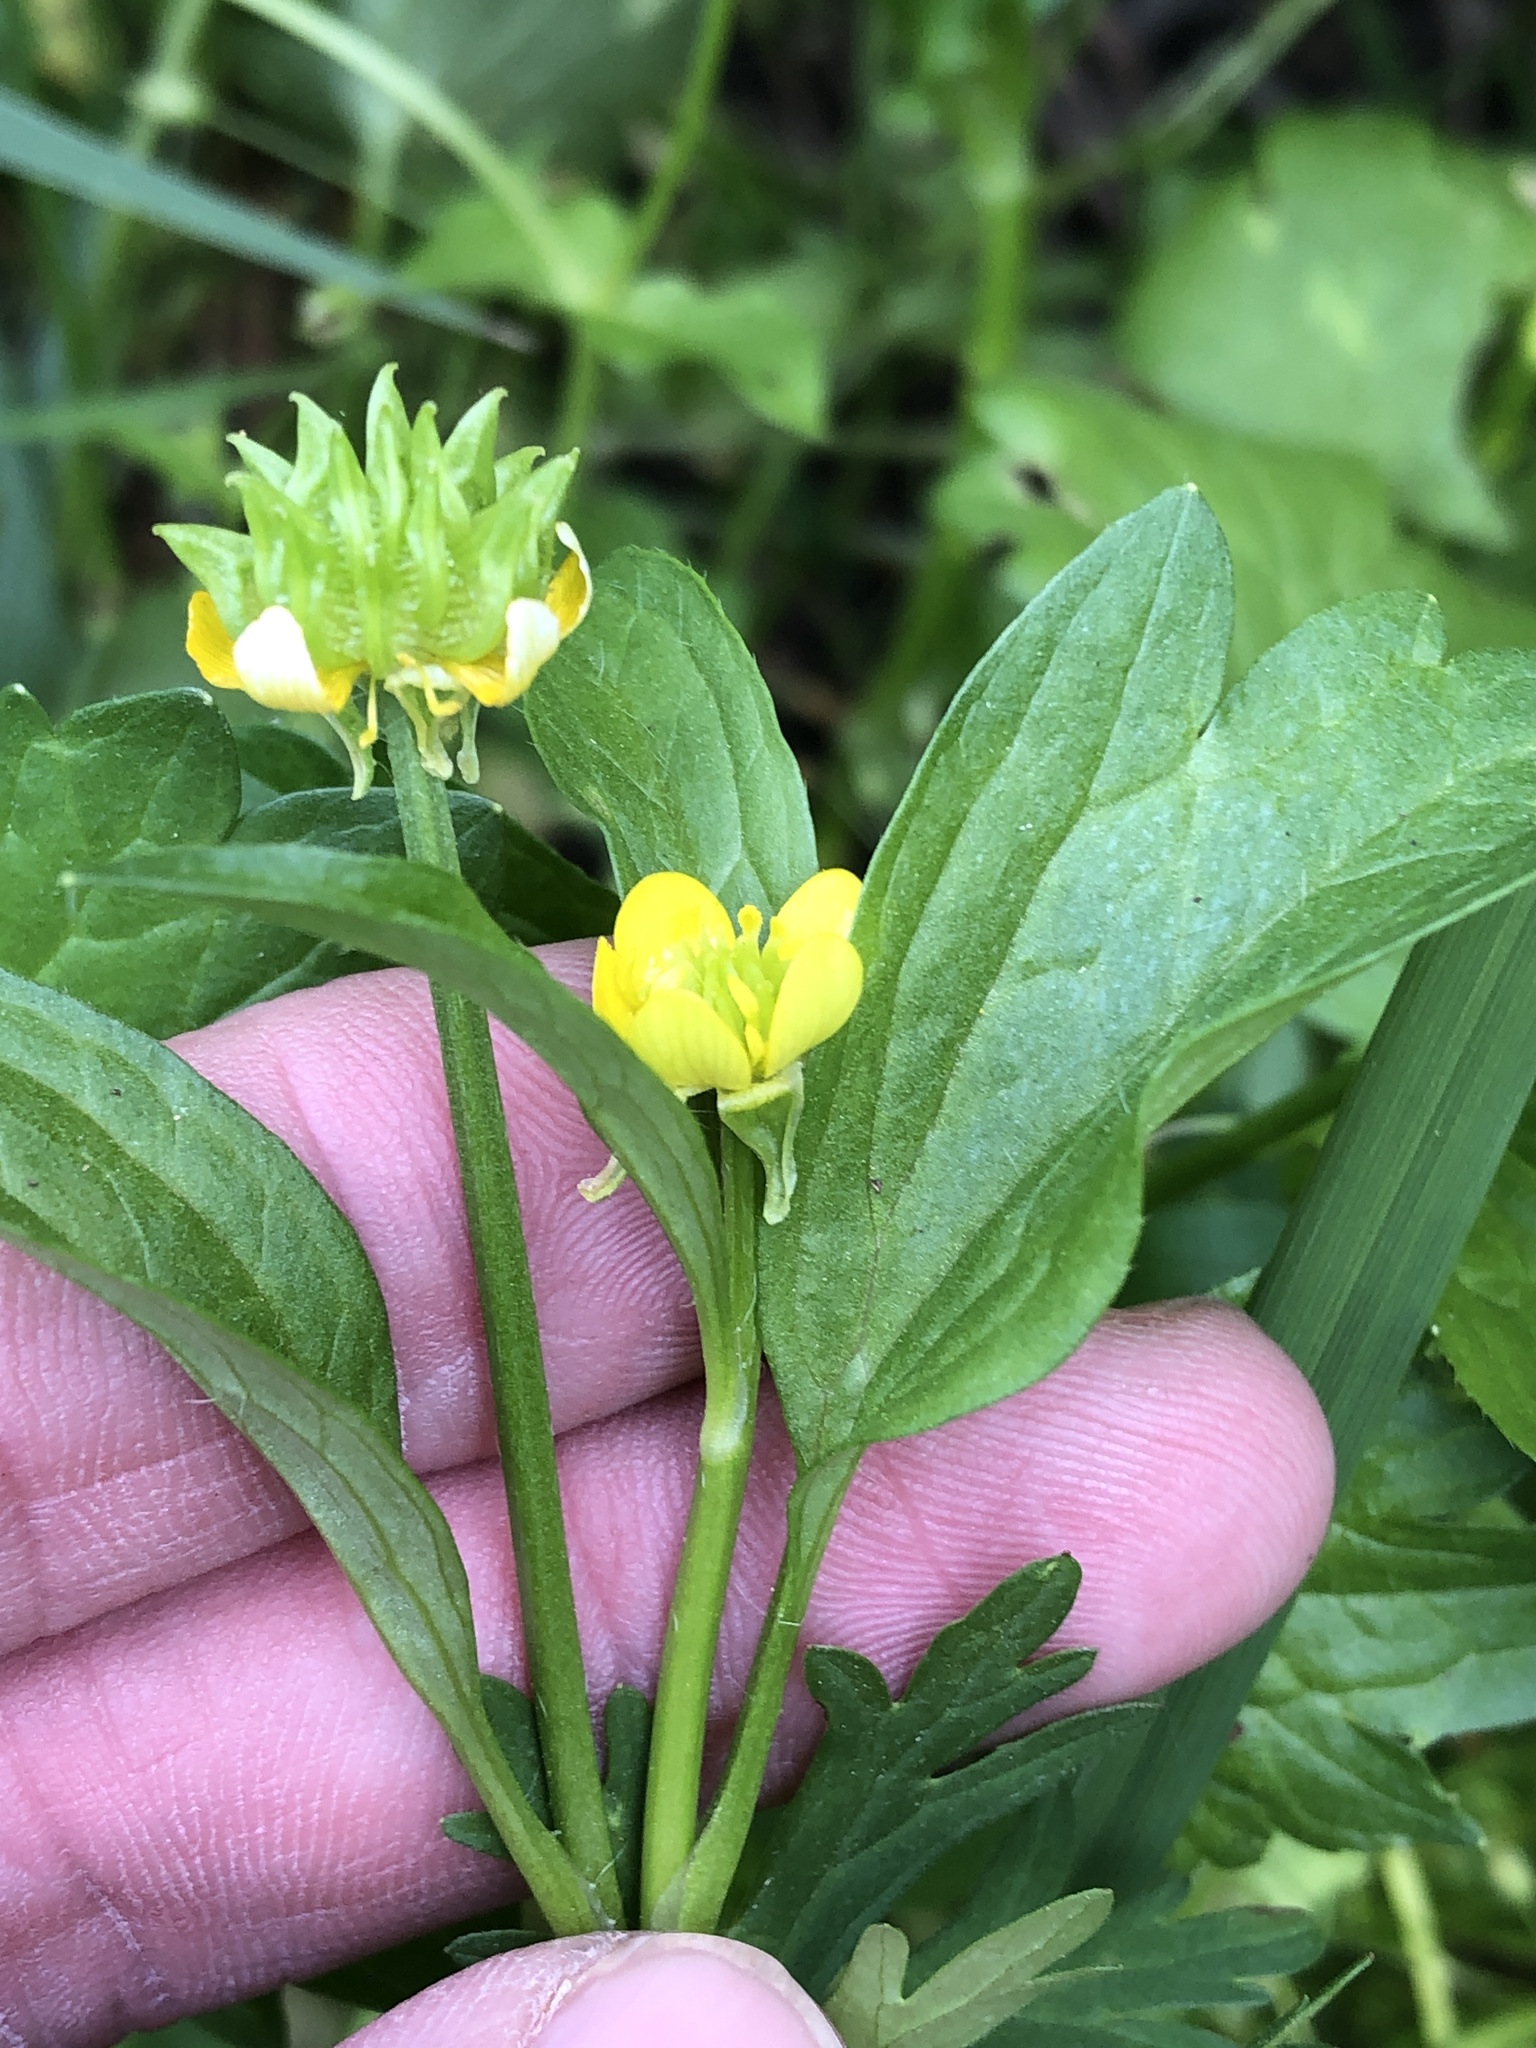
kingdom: Plantae
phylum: Tracheophyta
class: Magnoliopsida
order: Ranunculales
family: Ranunculaceae
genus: Ranunculus
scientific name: Ranunculus muricatus
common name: Rough-fruited buttercup
